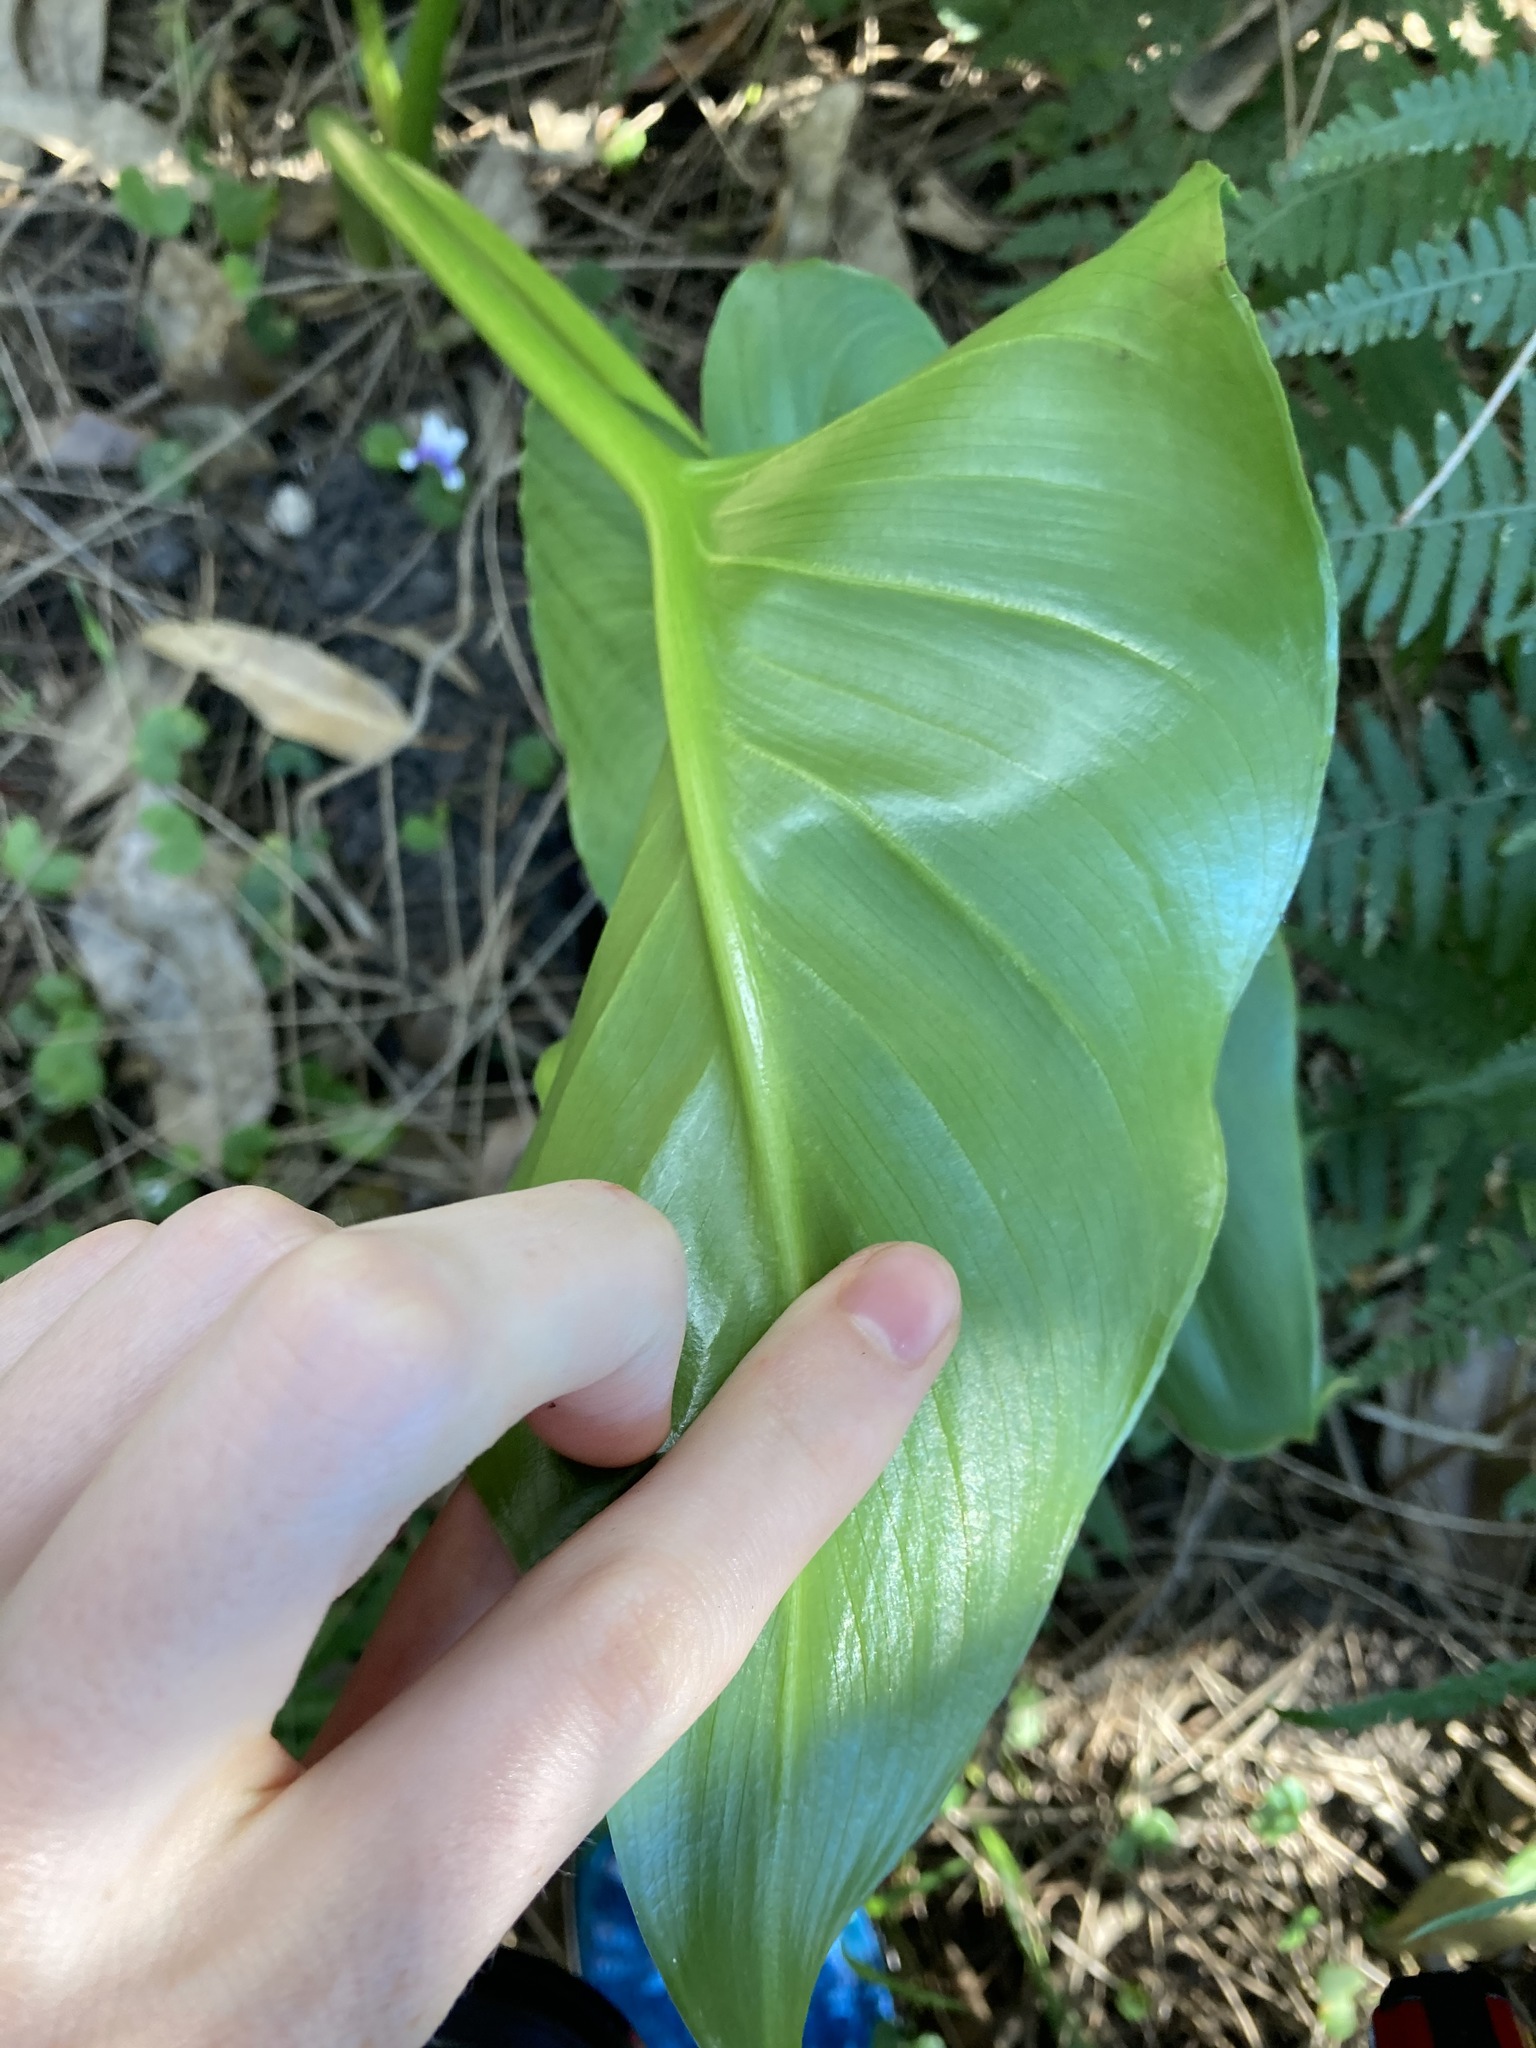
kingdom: Plantae
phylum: Tracheophyta
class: Liliopsida
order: Alismatales
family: Araceae
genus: Zantedeschia
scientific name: Zantedeschia aethiopica
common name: Altar-lily
